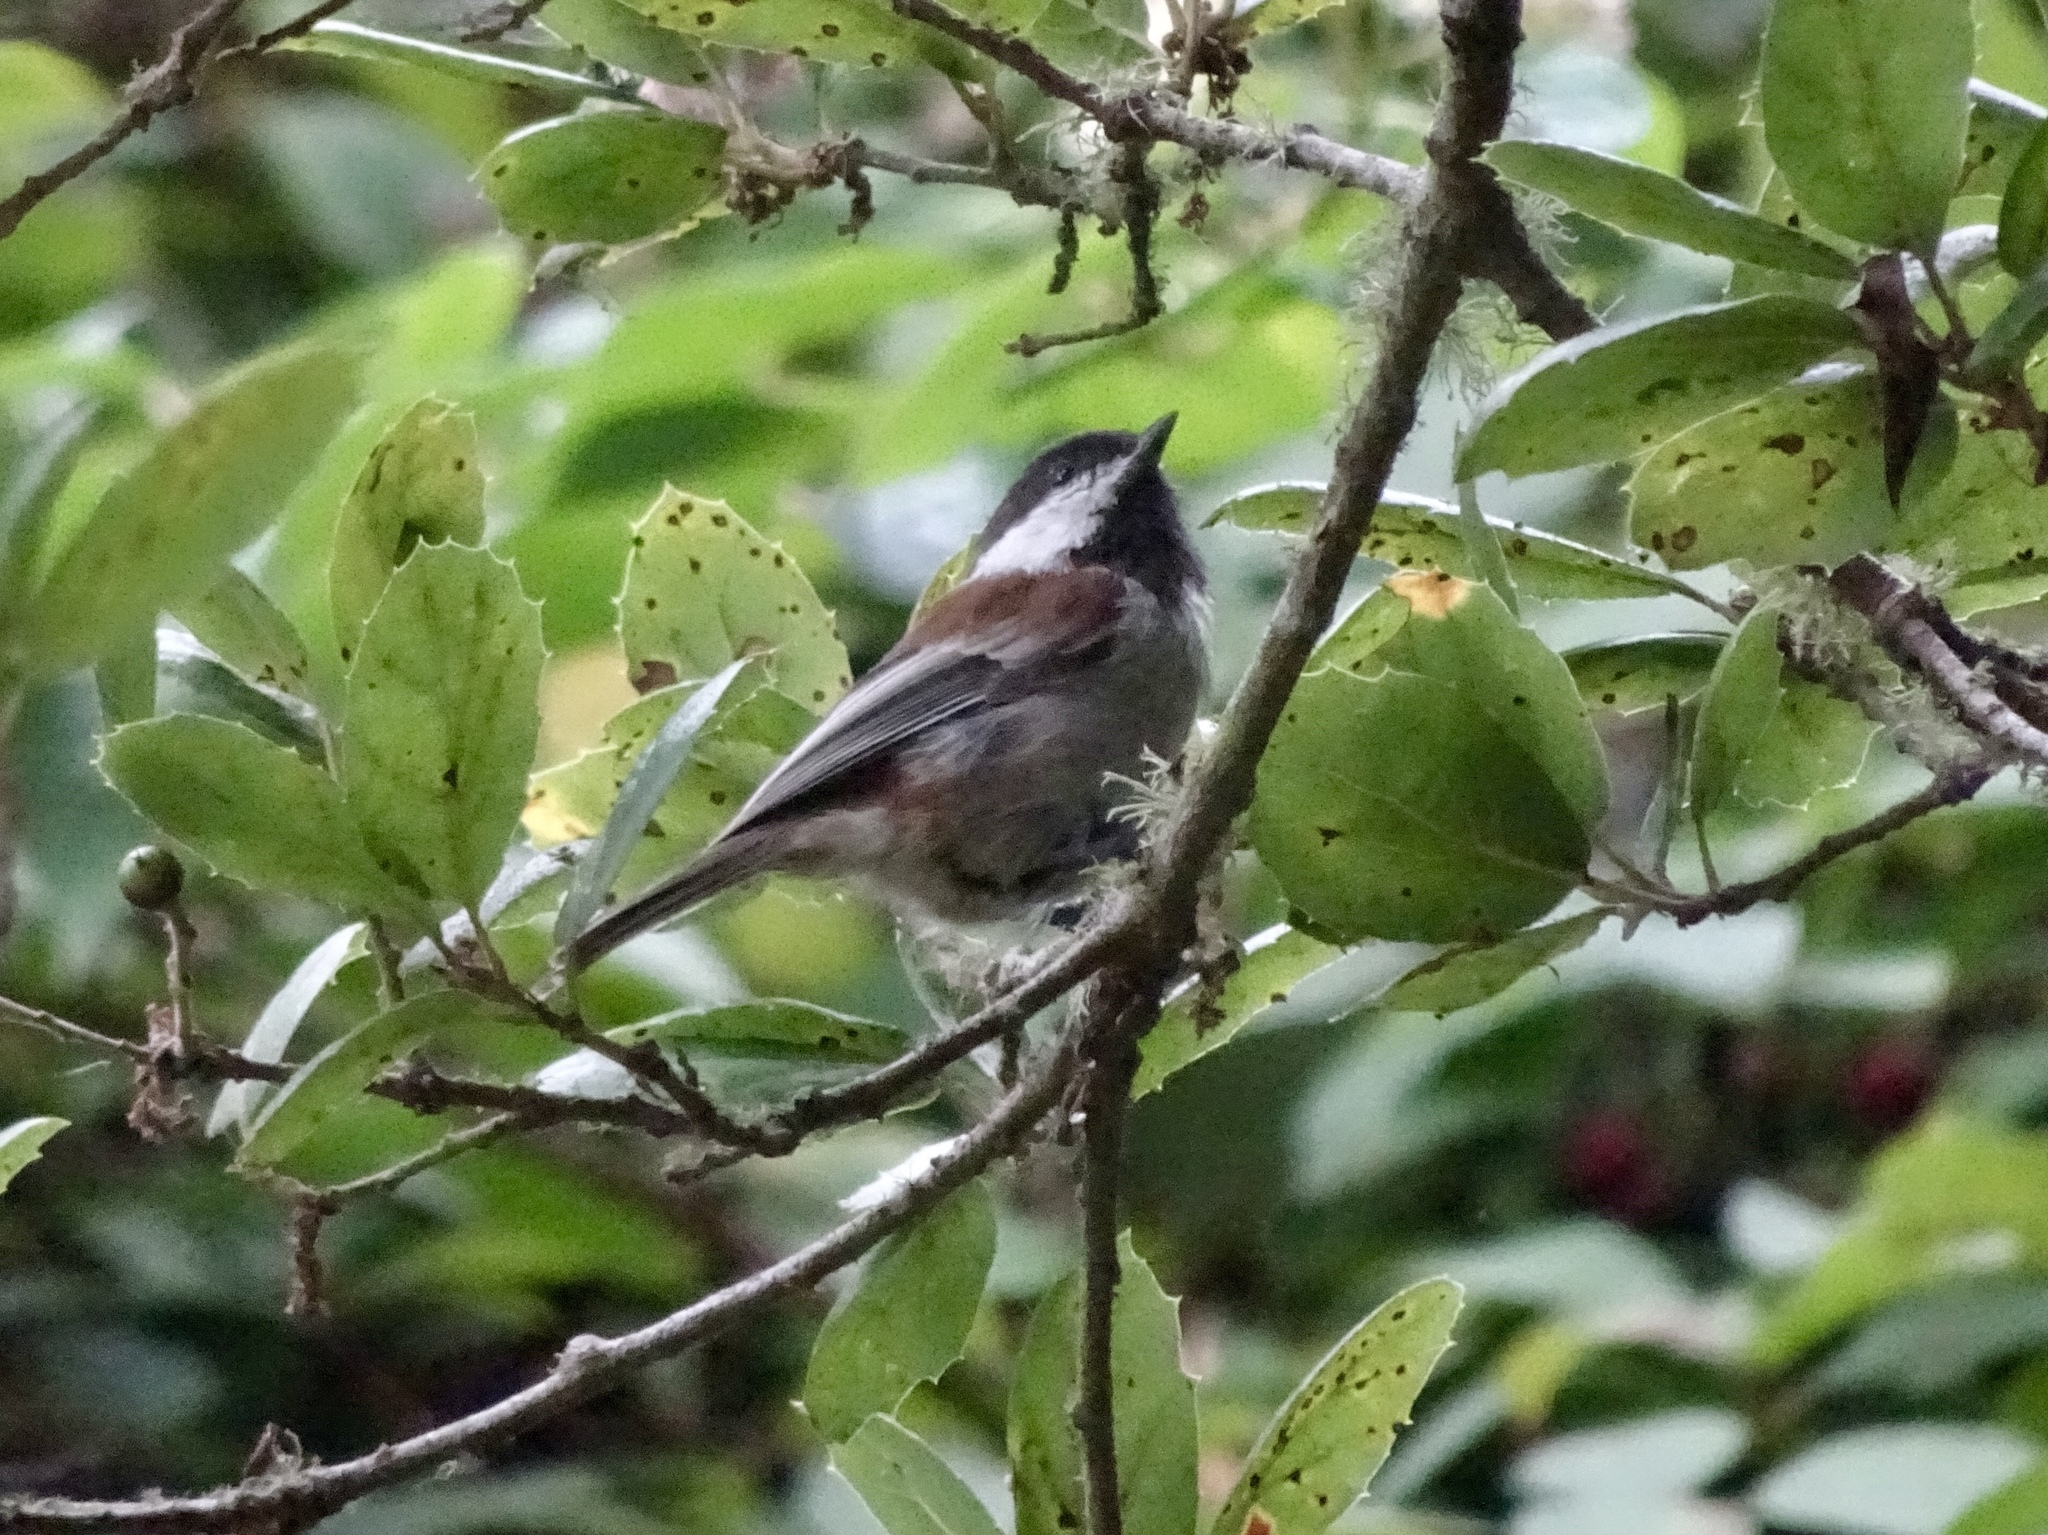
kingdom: Animalia
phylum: Chordata
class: Aves
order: Passeriformes
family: Paridae
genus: Poecile
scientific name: Poecile rufescens
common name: Chestnut-backed chickadee
